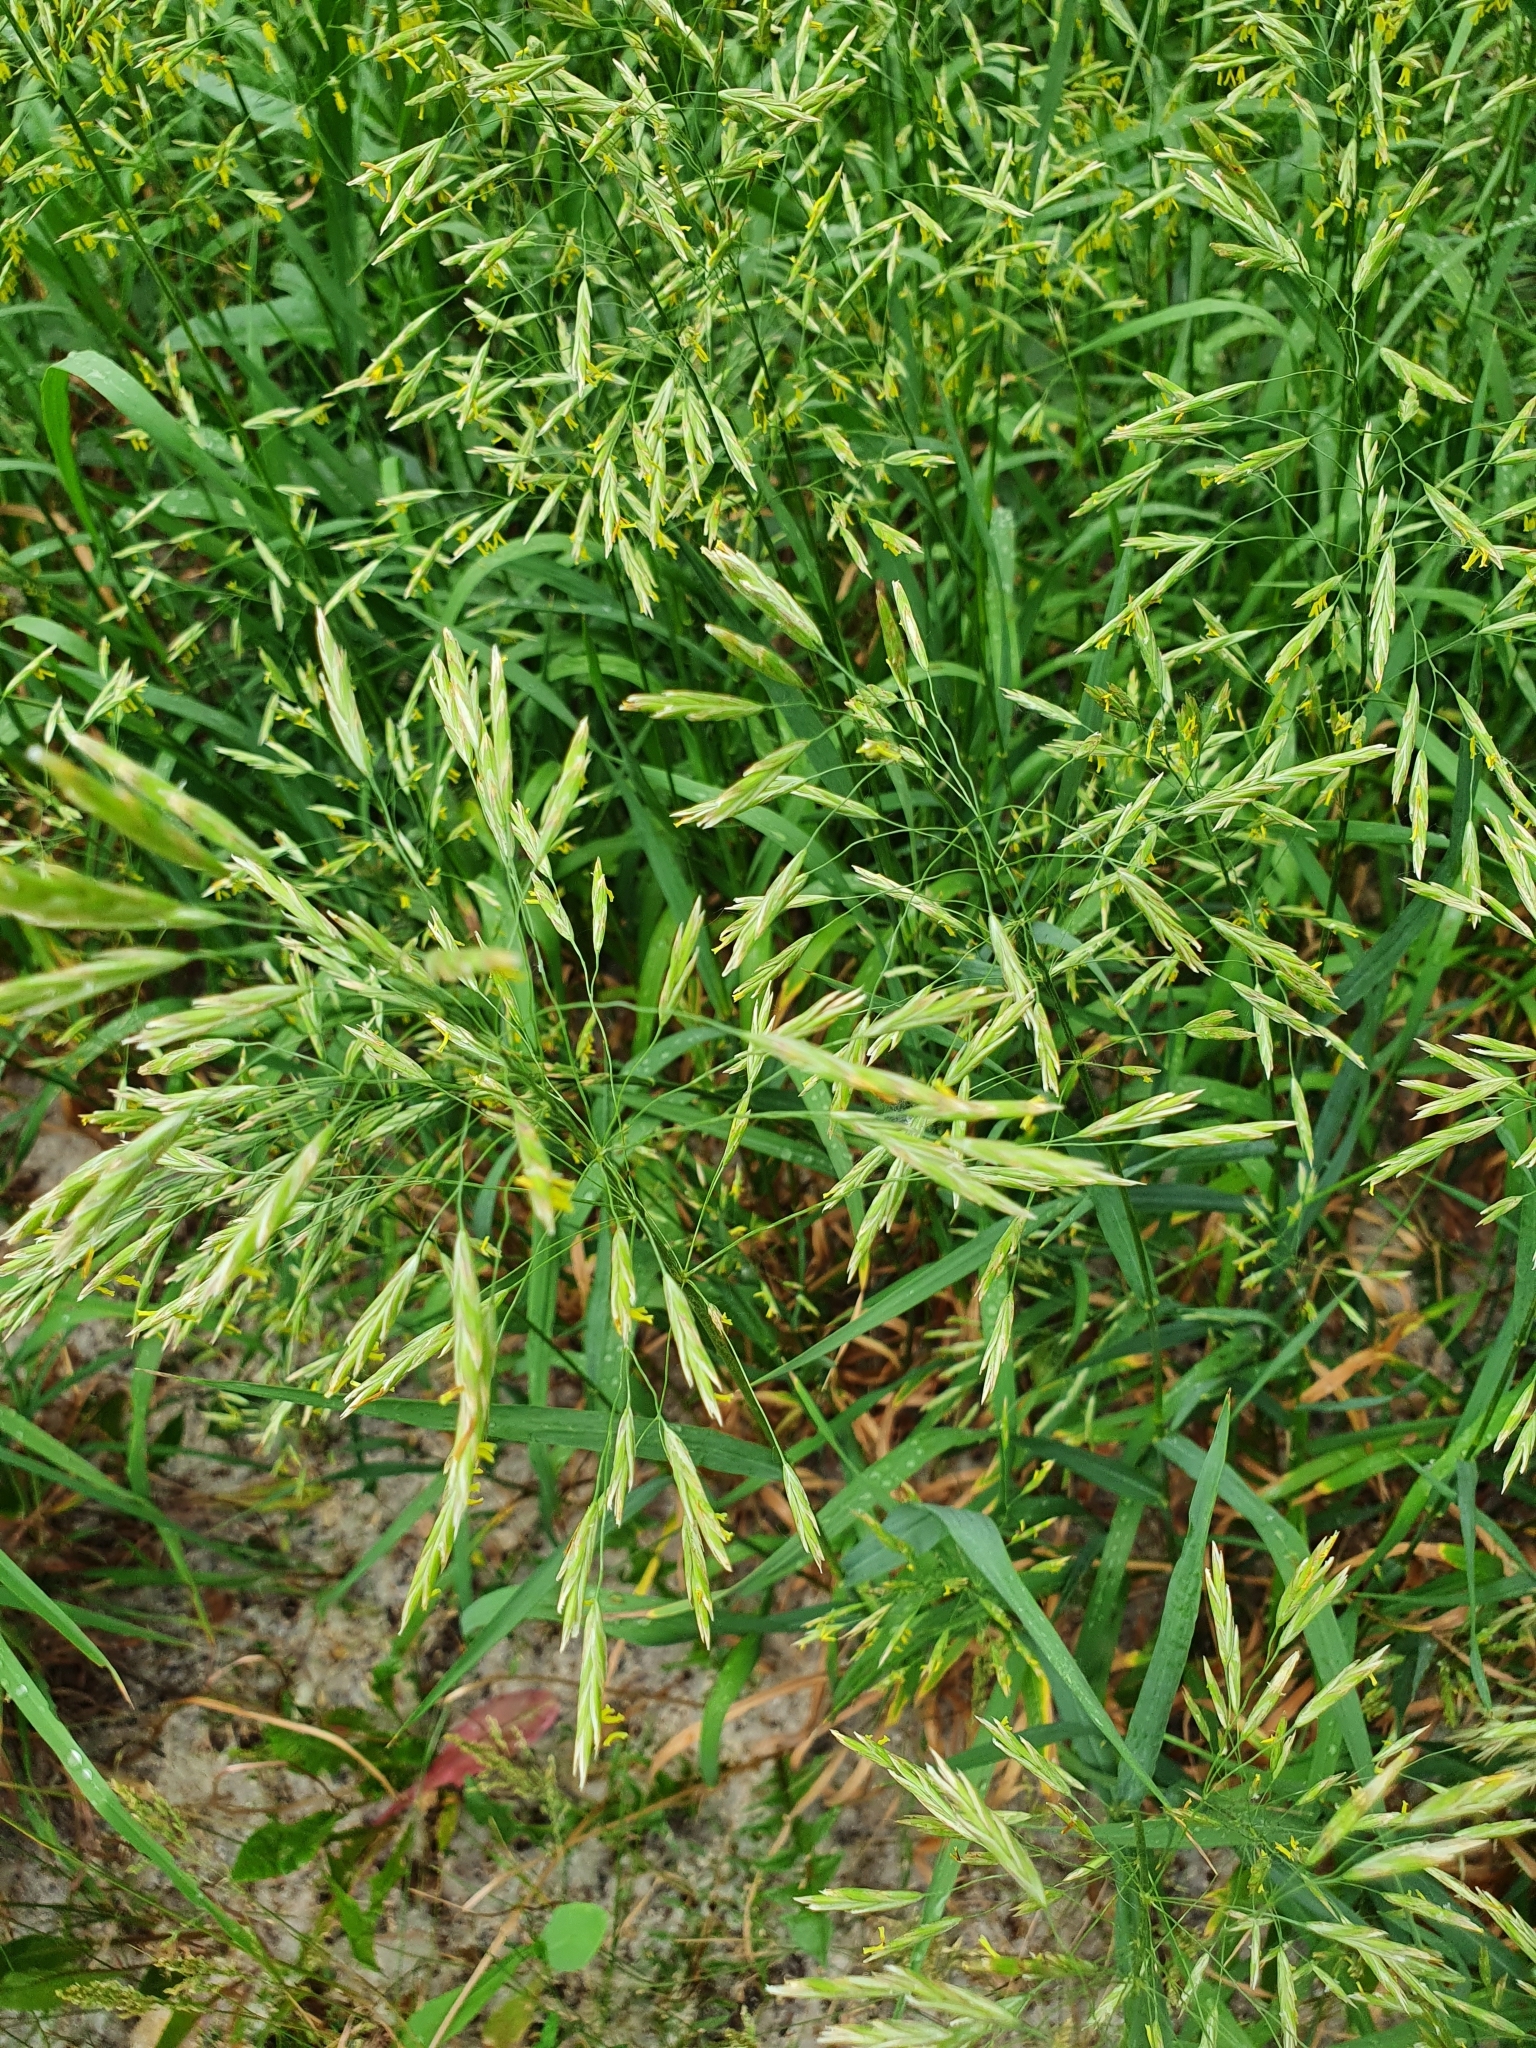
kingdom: Plantae
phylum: Tracheophyta
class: Liliopsida
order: Poales
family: Poaceae
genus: Bromus
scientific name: Bromus inermis
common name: Smooth brome
